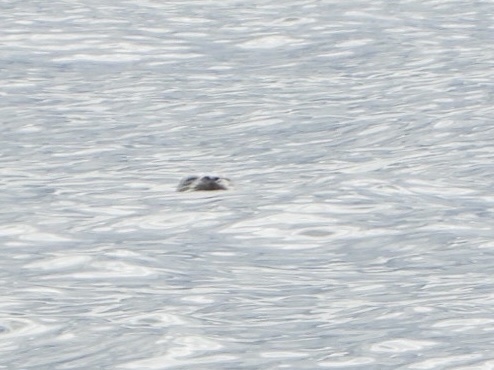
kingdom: Animalia
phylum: Chordata
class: Mammalia
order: Carnivora
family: Phocidae
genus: Phoca
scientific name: Phoca vitulina
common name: Harbor seal
